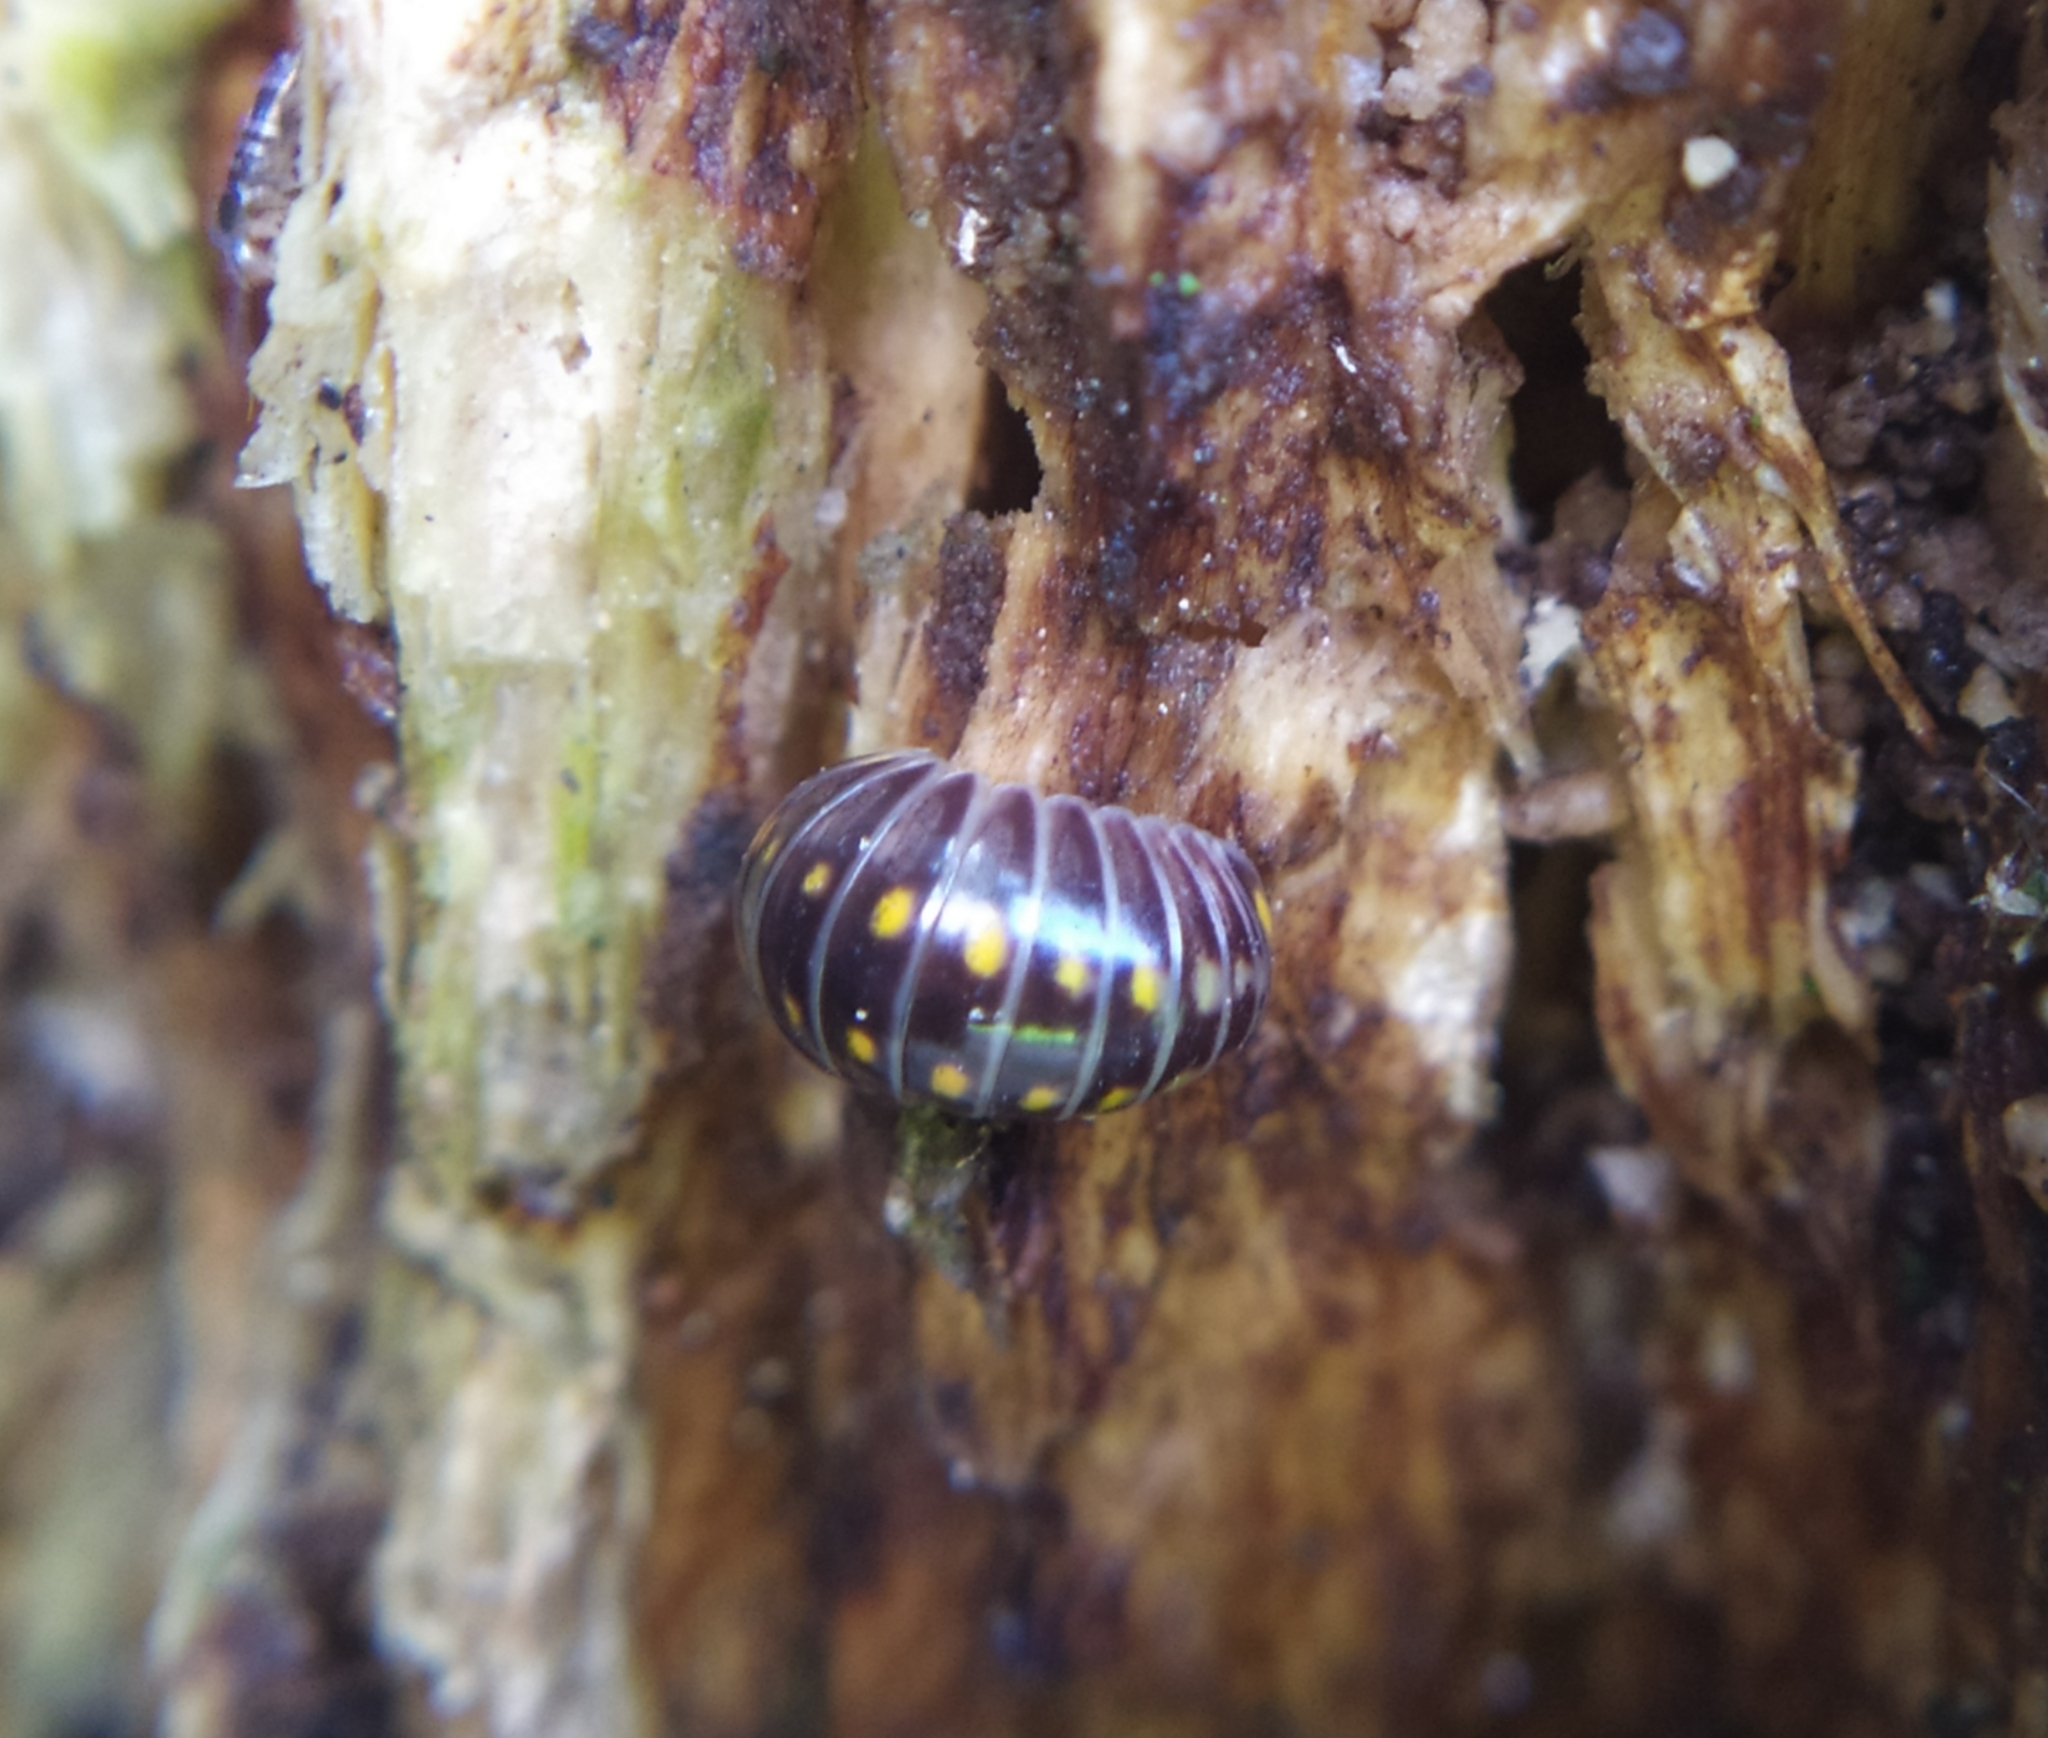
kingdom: Animalia
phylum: Arthropoda
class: Diplopoda
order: Glomerida
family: Glomeridae
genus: Glomeris
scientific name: Glomeris pustulata
